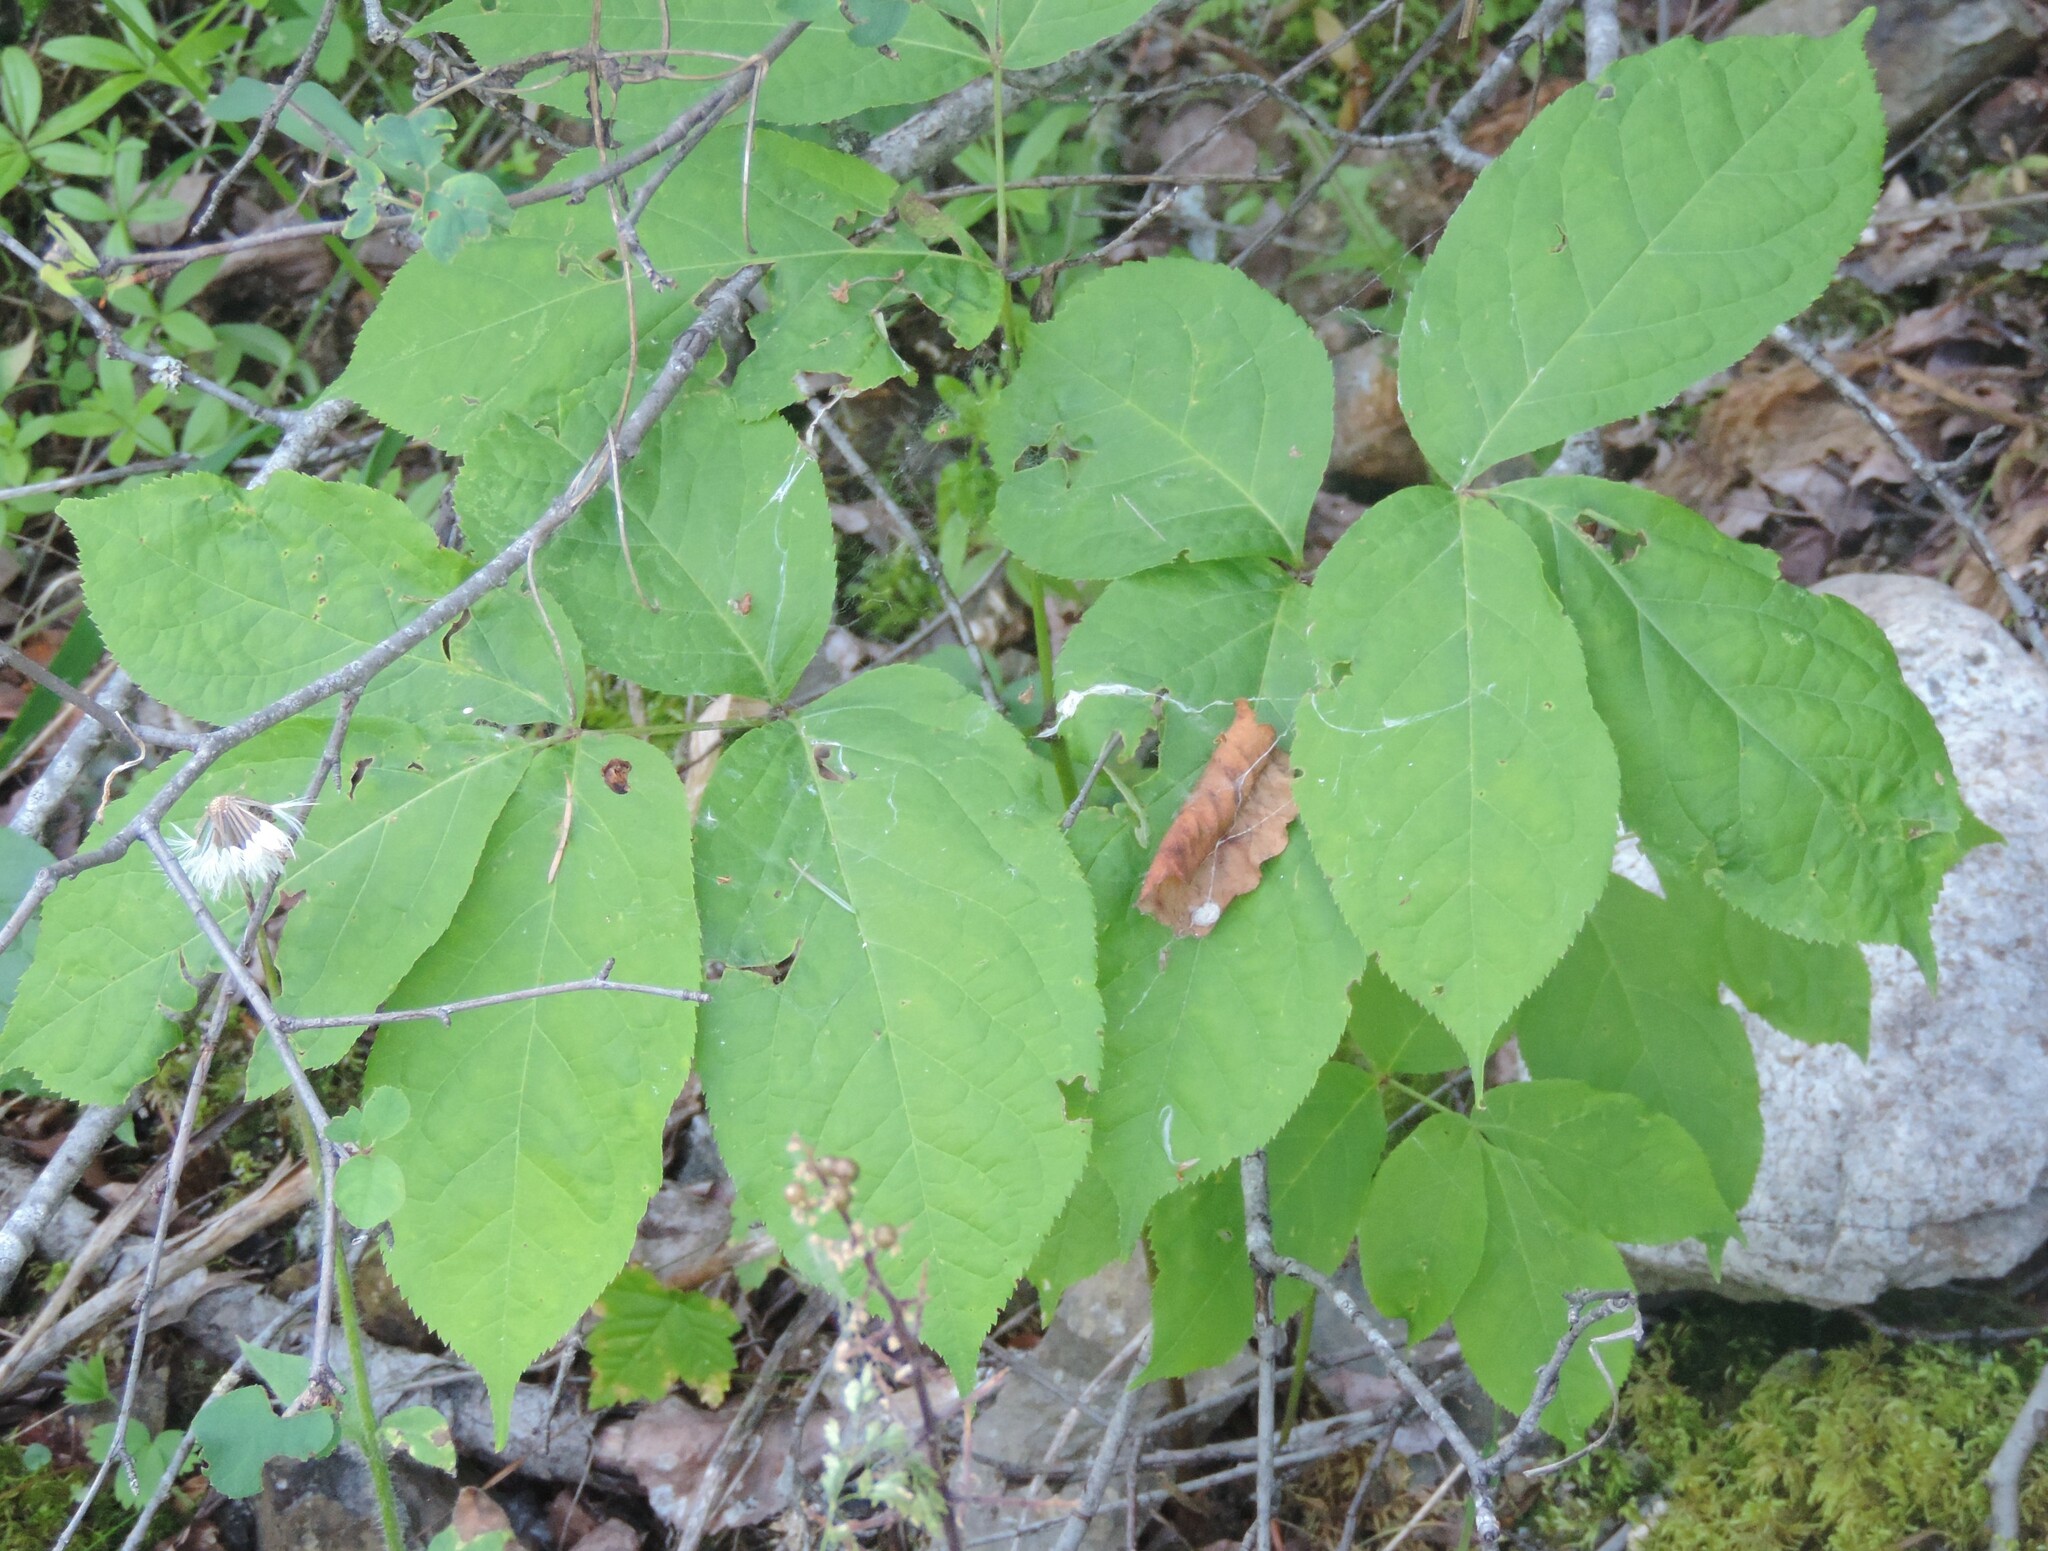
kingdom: Plantae
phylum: Tracheophyta
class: Magnoliopsida
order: Apiales
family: Araliaceae
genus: Aralia
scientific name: Aralia nudicaulis
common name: Wild sarsaparilla
